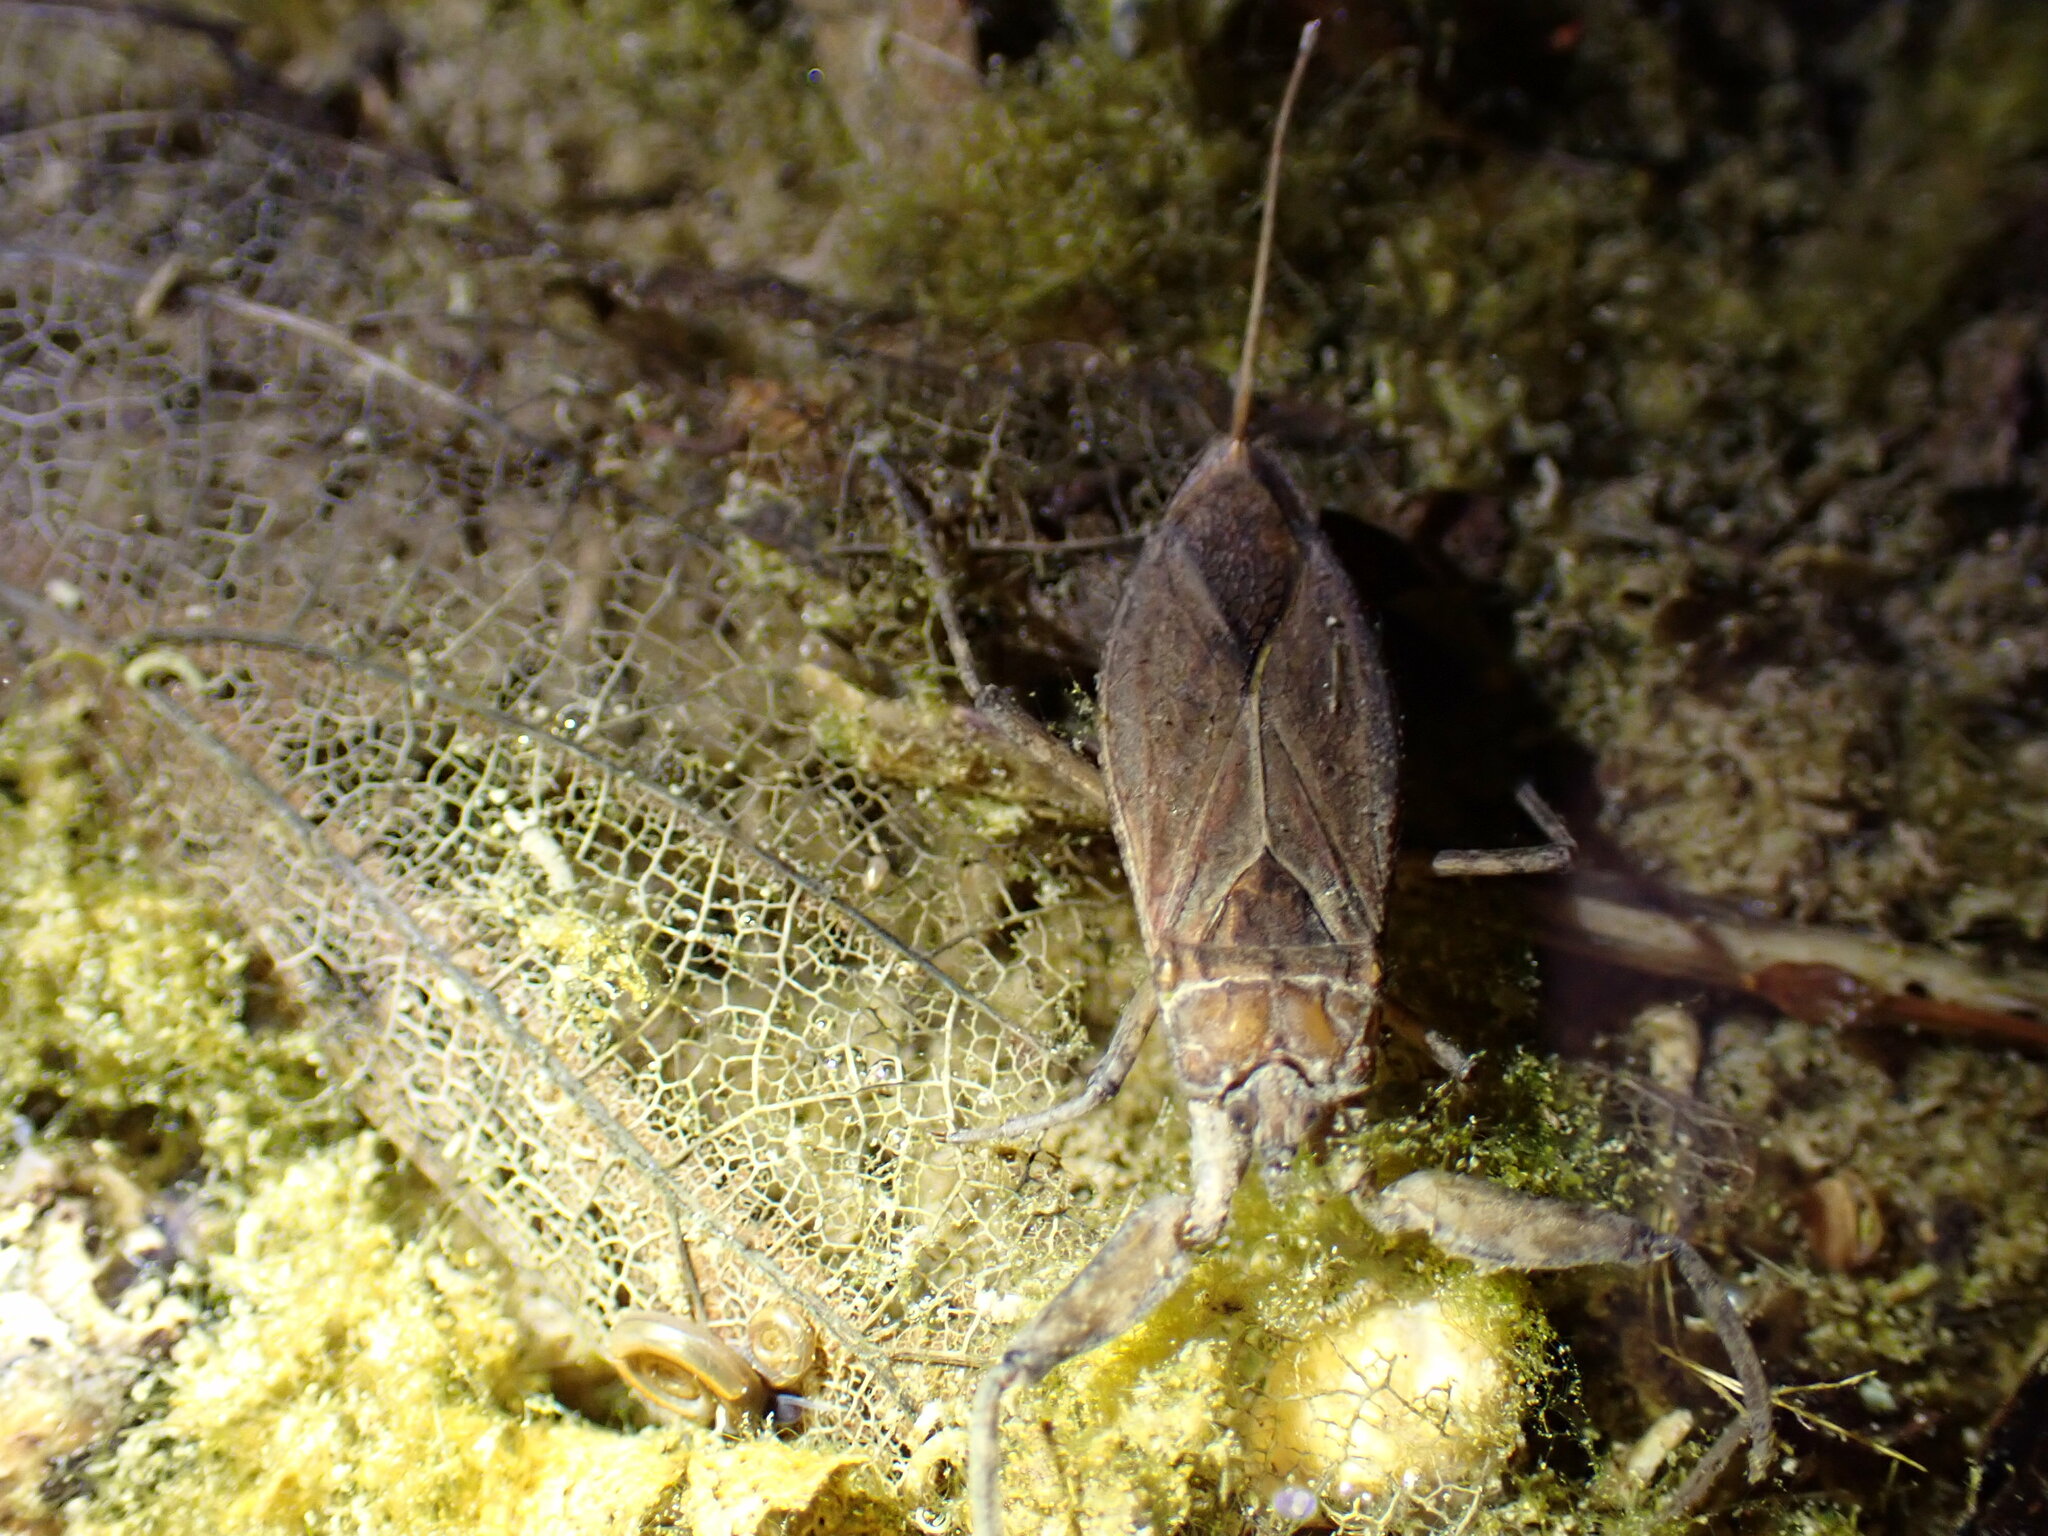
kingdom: Animalia
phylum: Arthropoda
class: Insecta
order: Hemiptera
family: Nepidae
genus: Nepa
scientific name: Nepa cinerea
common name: Water scorpion
